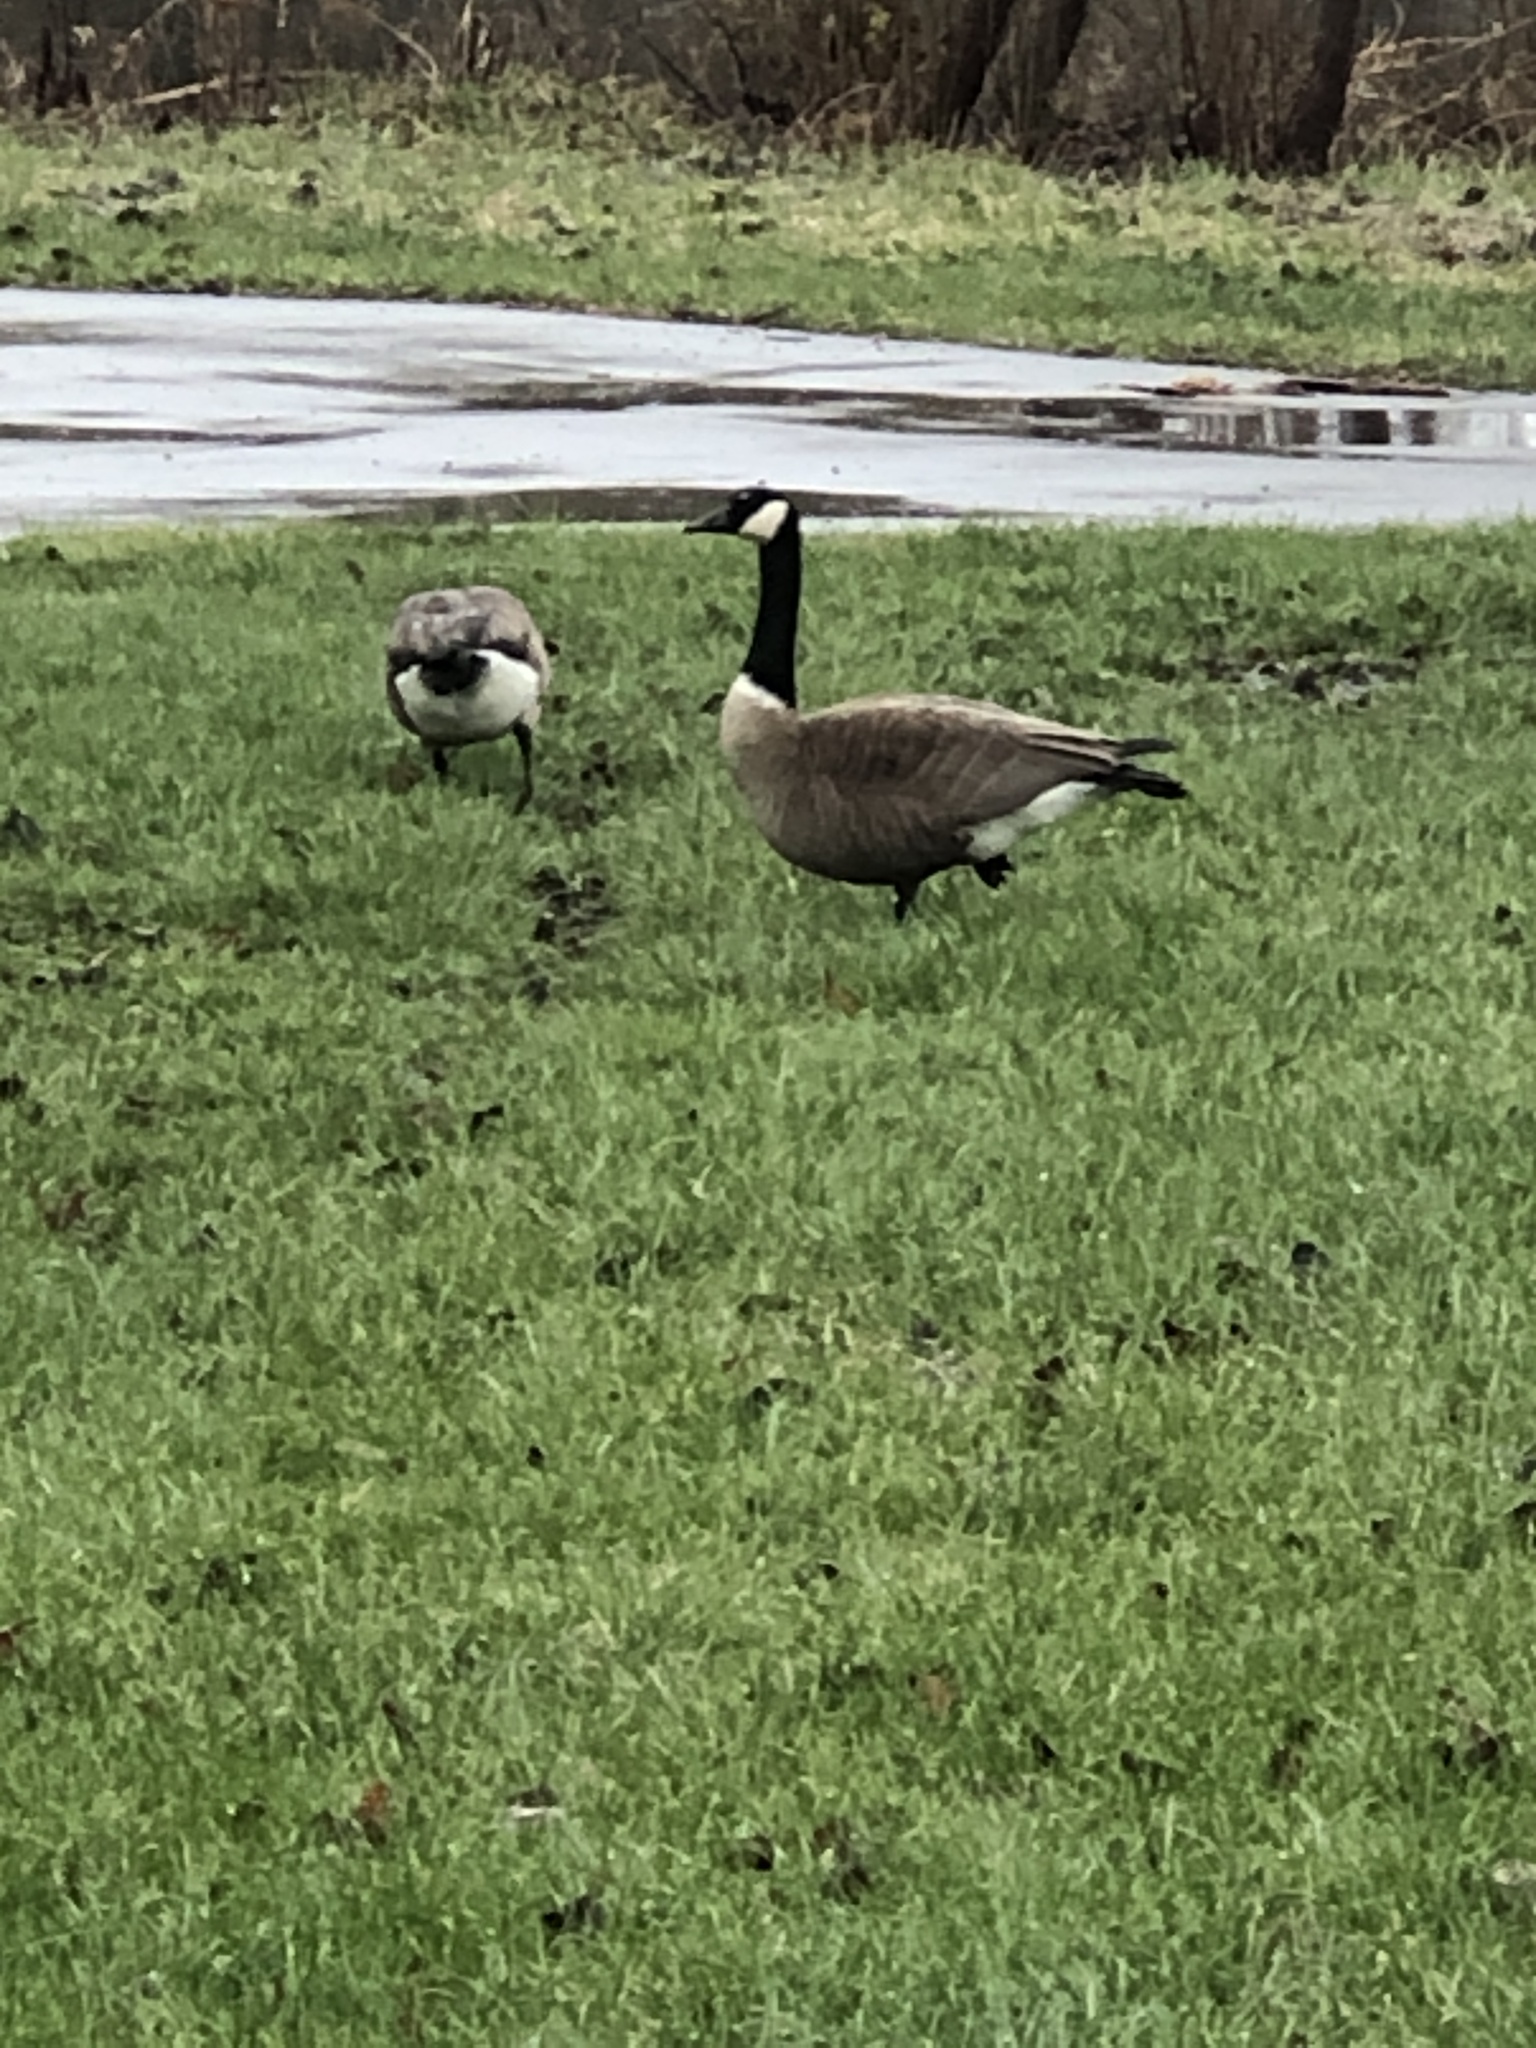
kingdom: Animalia
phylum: Chordata
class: Aves
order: Anseriformes
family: Anatidae
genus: Branta
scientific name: Branta canadensis
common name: Canada goose
